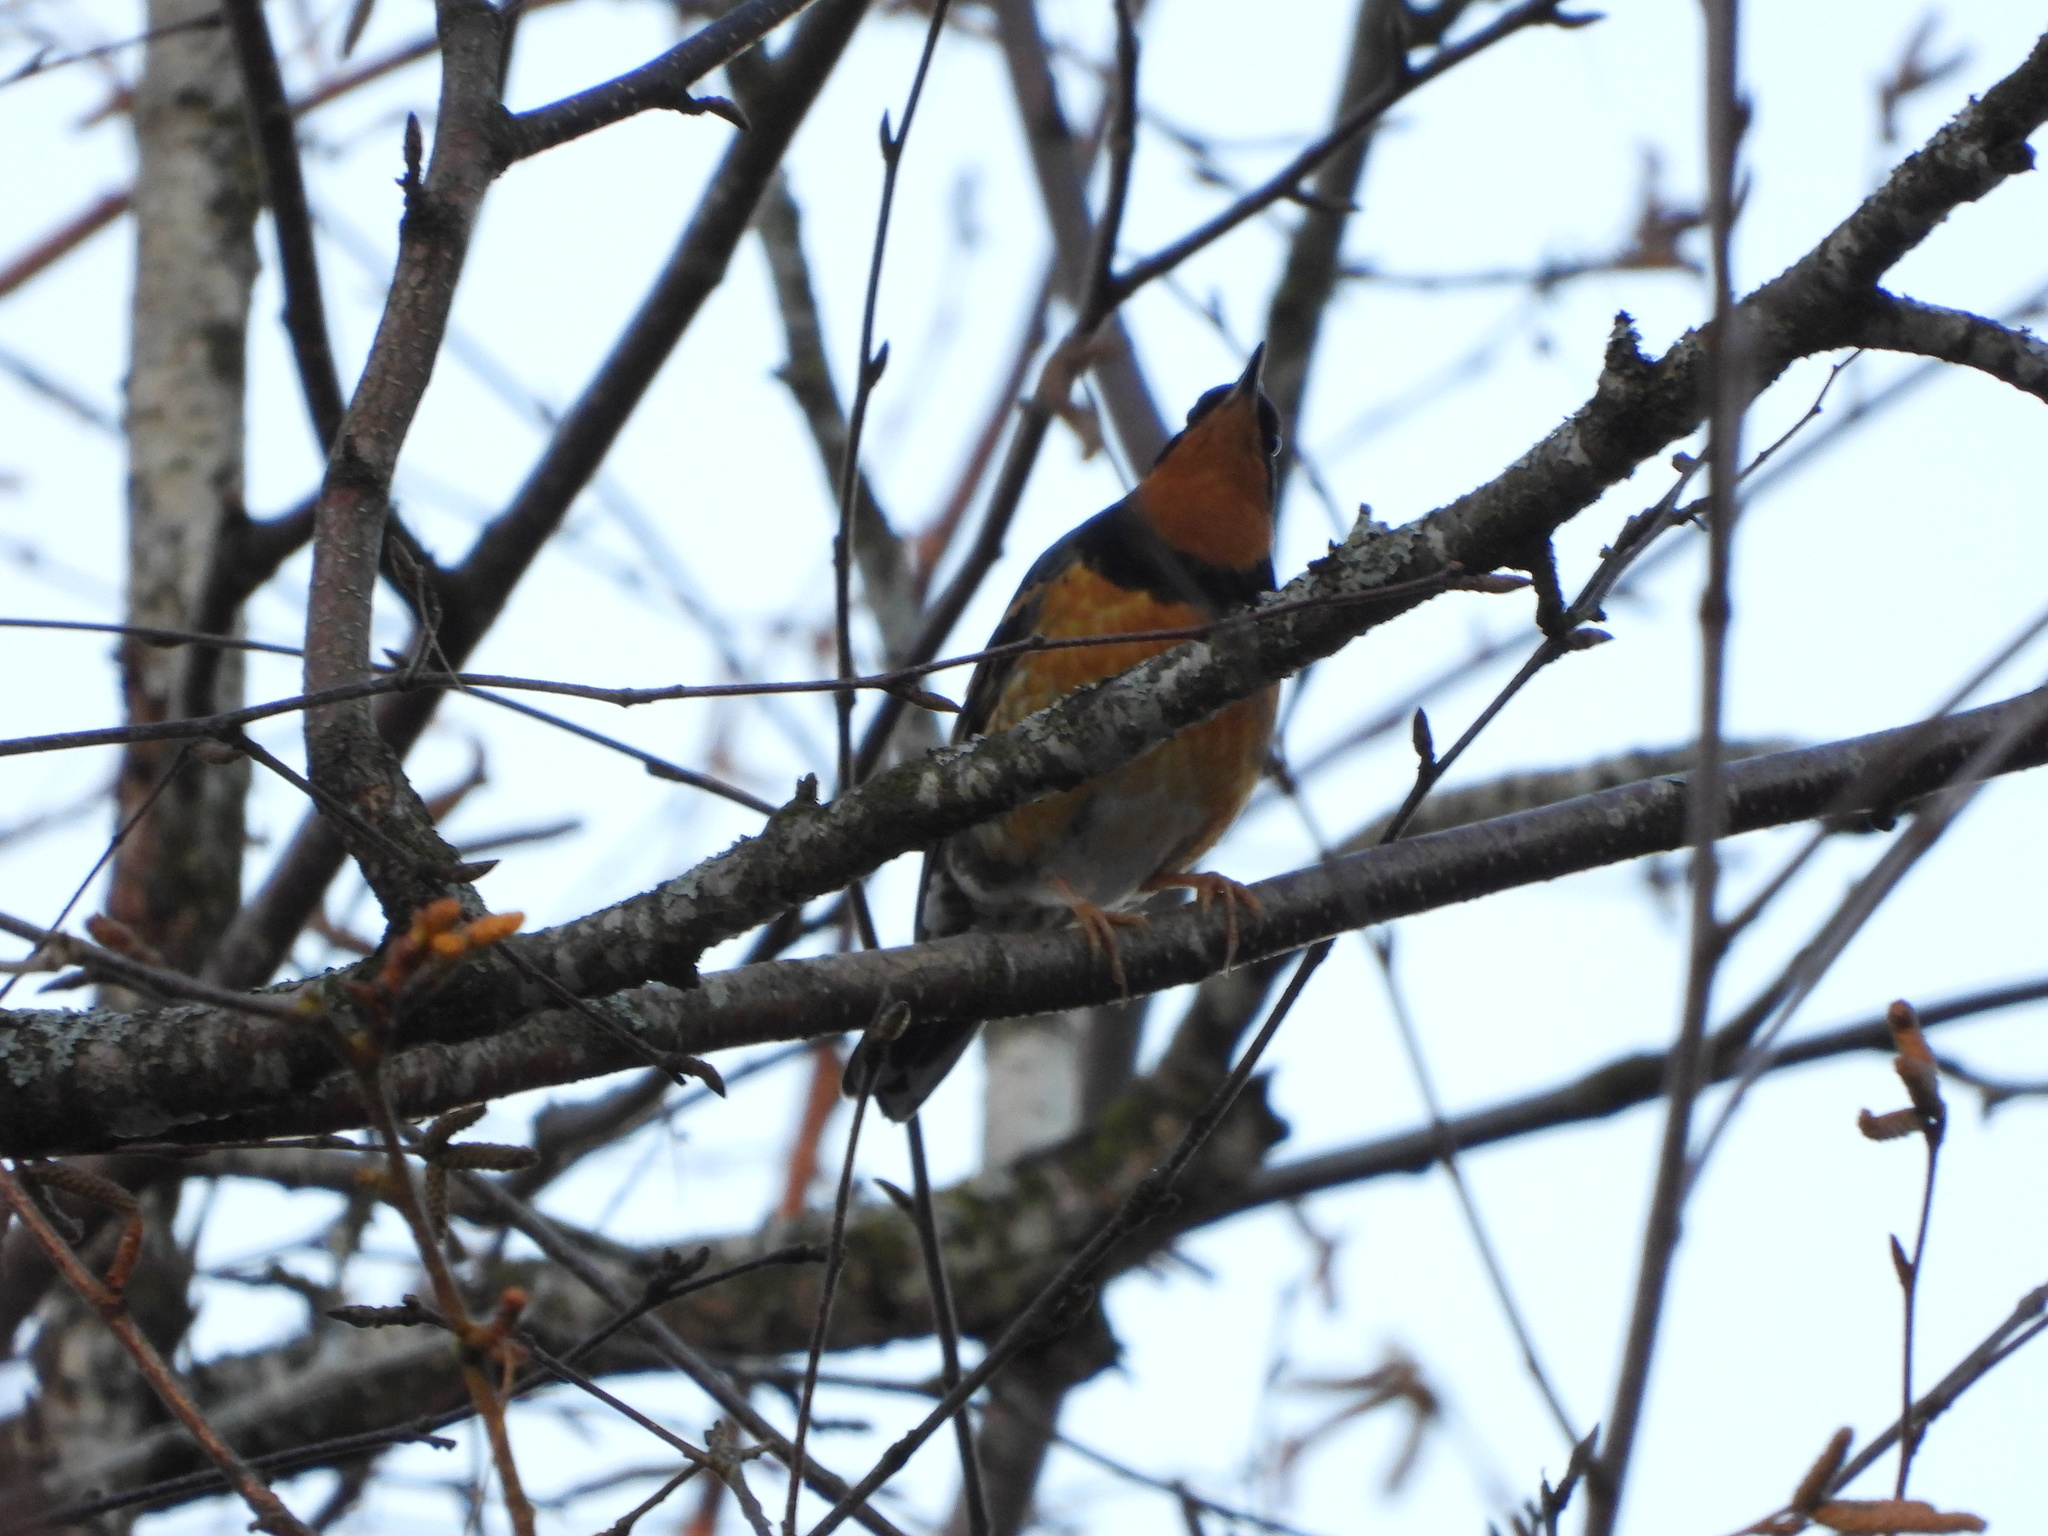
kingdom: Animalia
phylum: Chordata
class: Aves
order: Passeriformes
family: Turdidae
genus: Ixoreus
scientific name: Ixoreus naevius
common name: Varied thrush
